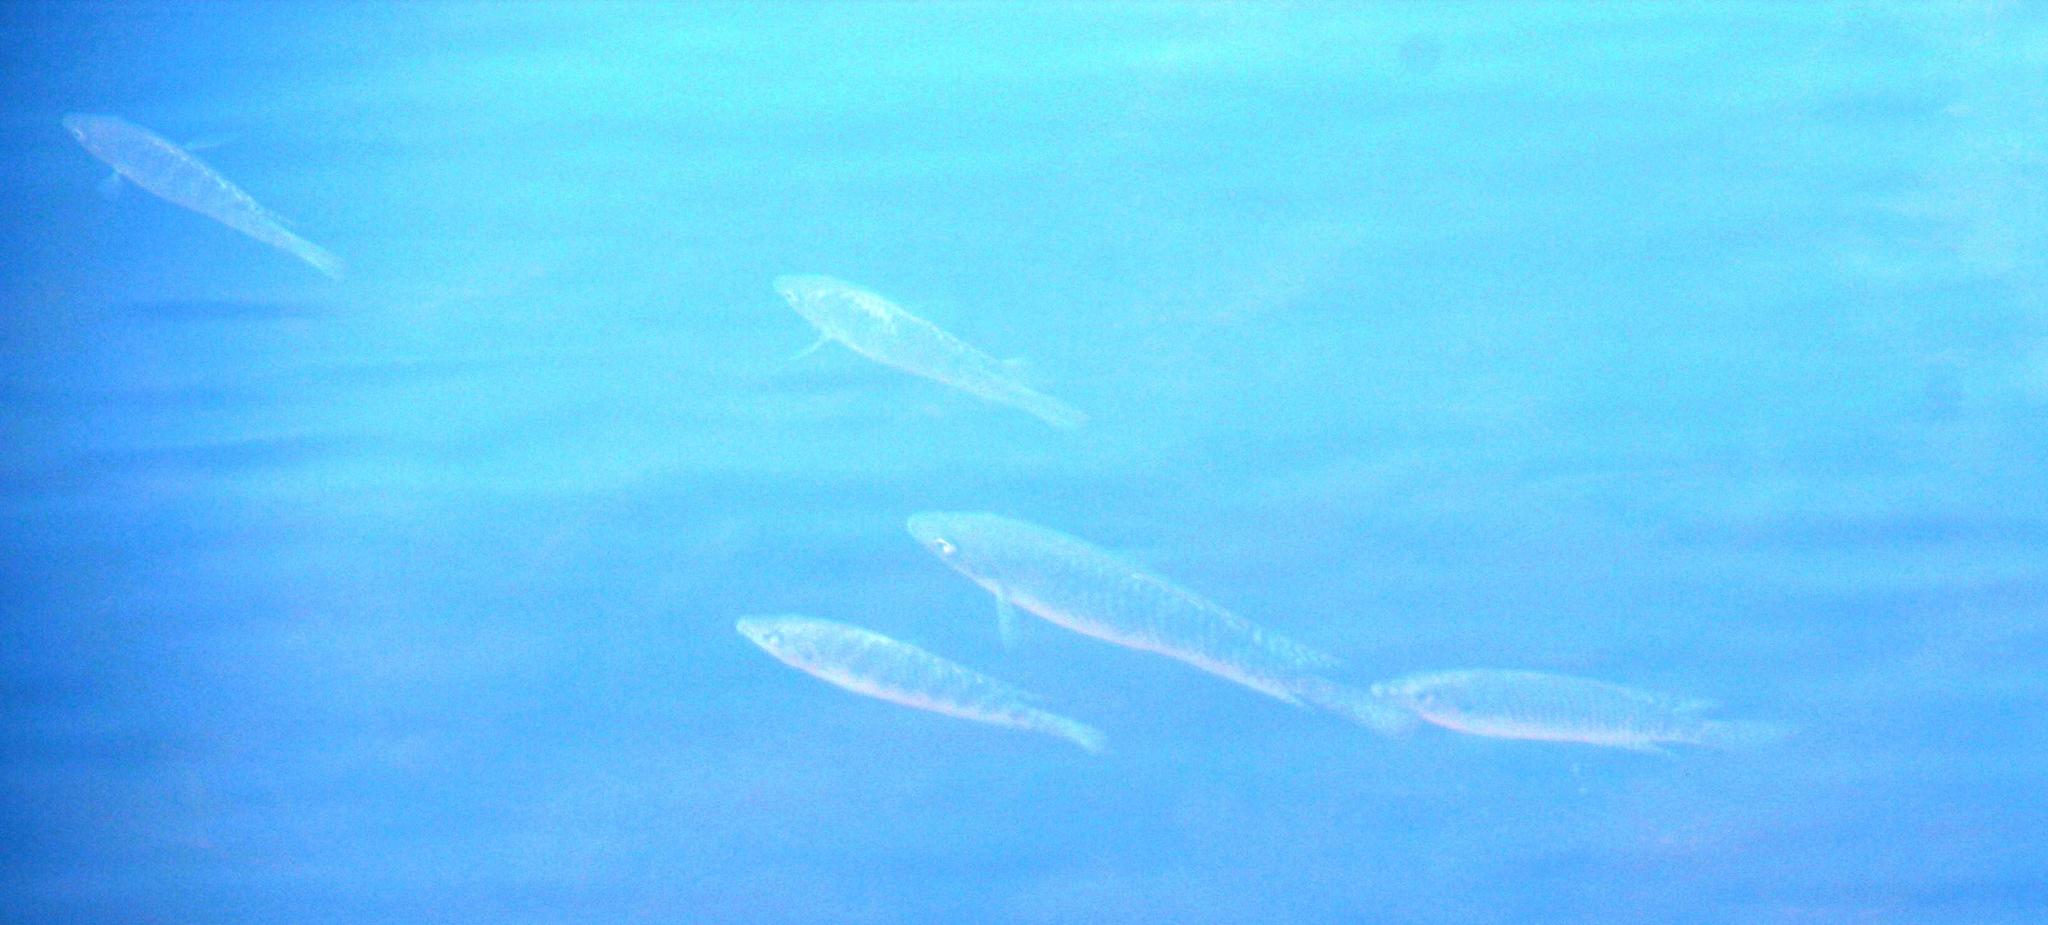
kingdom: Animalia
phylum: Chordata
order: Perciformes
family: Cichlidae
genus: Oreochromis
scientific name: Oreochromis mossambicus
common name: Mozambique tilapia
